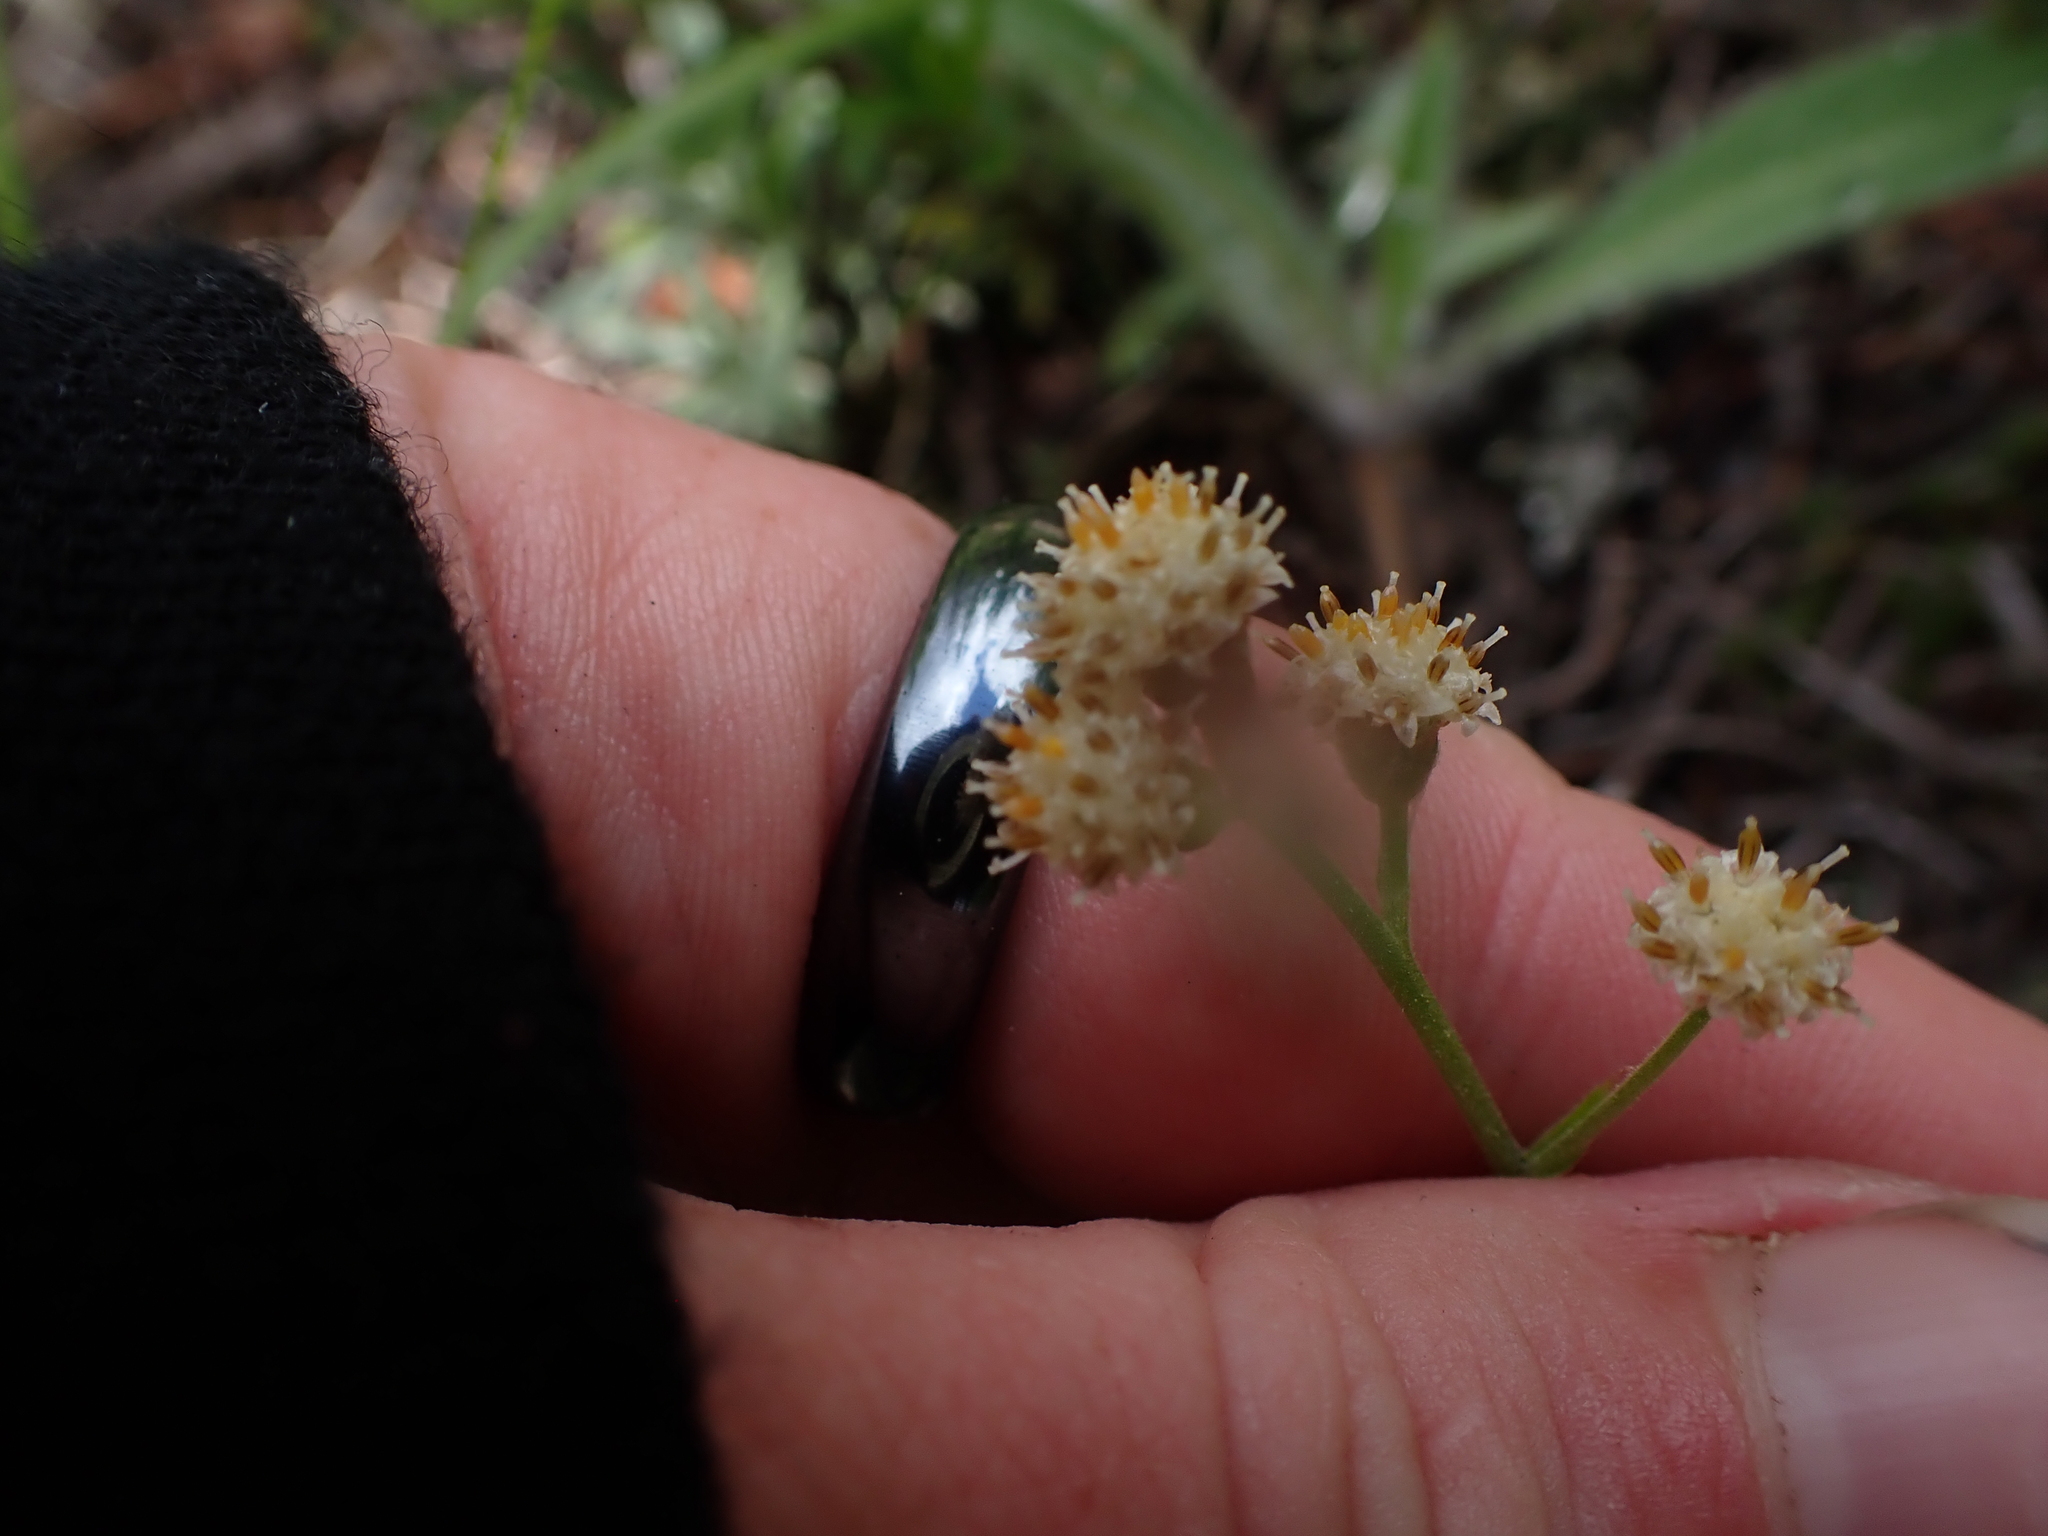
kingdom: Plantae
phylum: Tracheophyta
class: Magnoliopsida
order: Asterales
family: Asteraceae
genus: Antennaria
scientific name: Antennaria racemosa
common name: Racemose pussytoes
